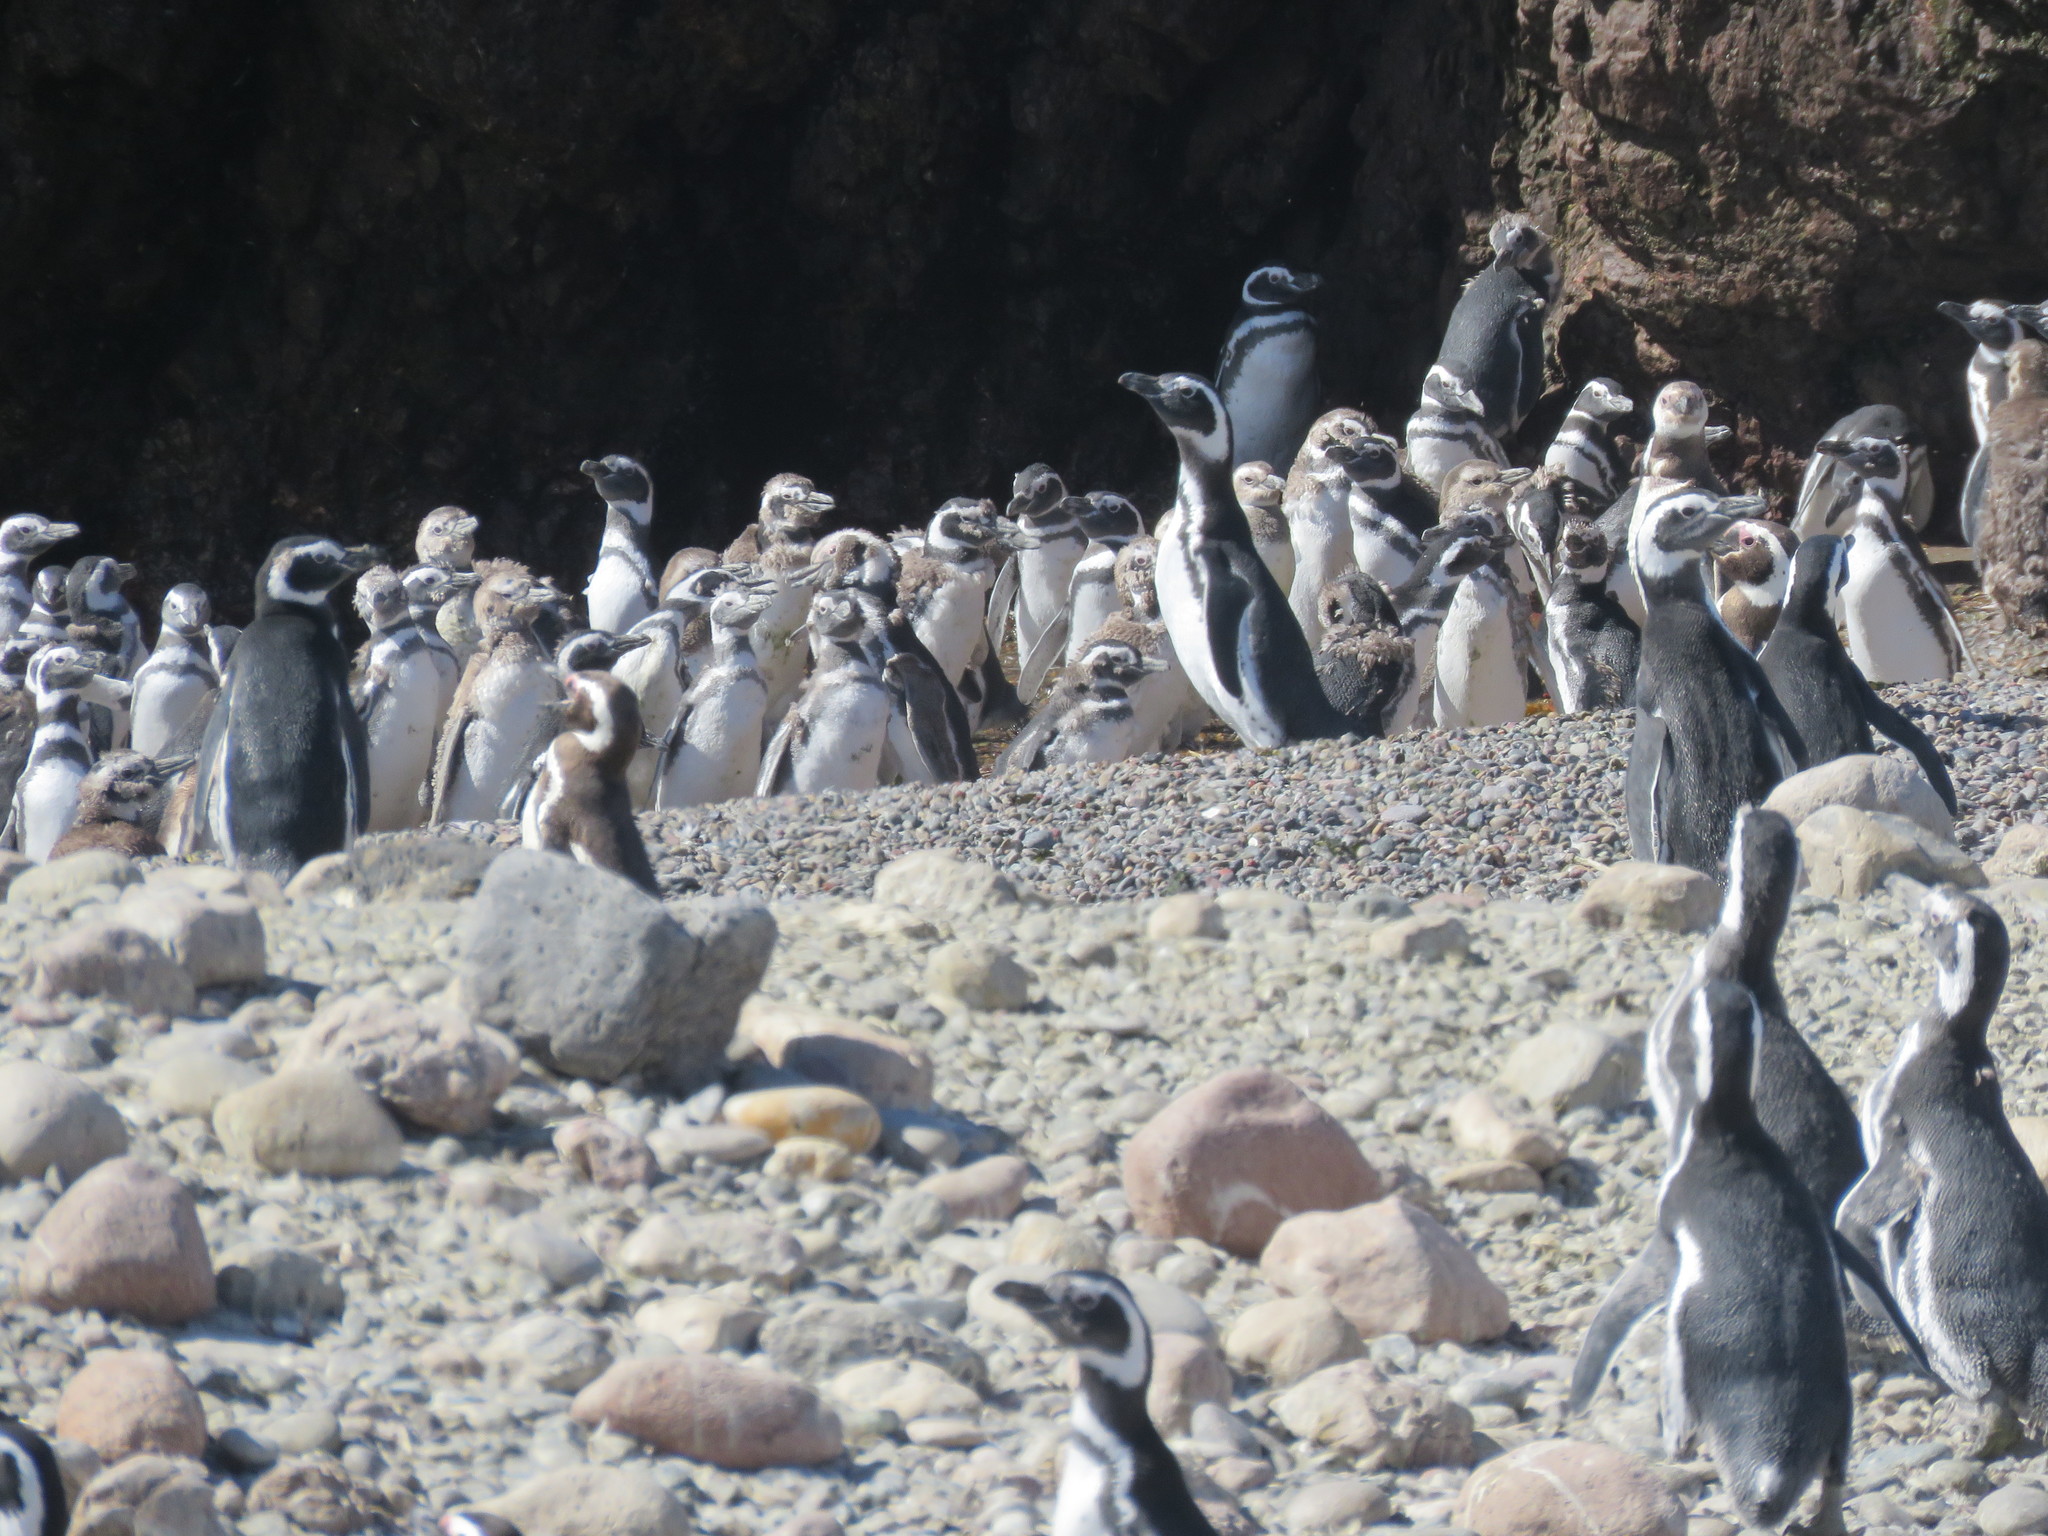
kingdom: Animalia
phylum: Chordata
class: Aves
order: Sphenisciformes
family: Spheniscidae
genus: Spheniscus
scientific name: Spheniscus magellanicus
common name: Magellanic penguin
